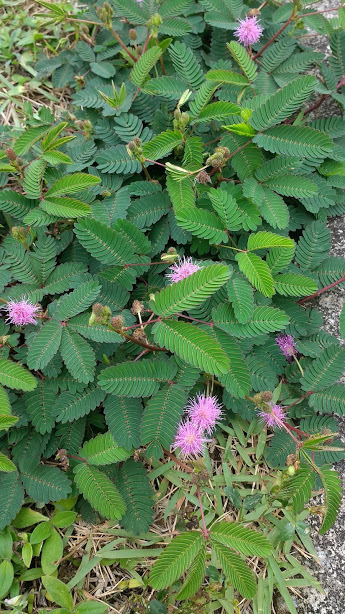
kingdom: Plantae
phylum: Tracheophyta
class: Magnoliopsida
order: Fabales
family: Fabaceae
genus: Mimosa
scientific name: Mimosa pudica
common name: Sensitive plant
